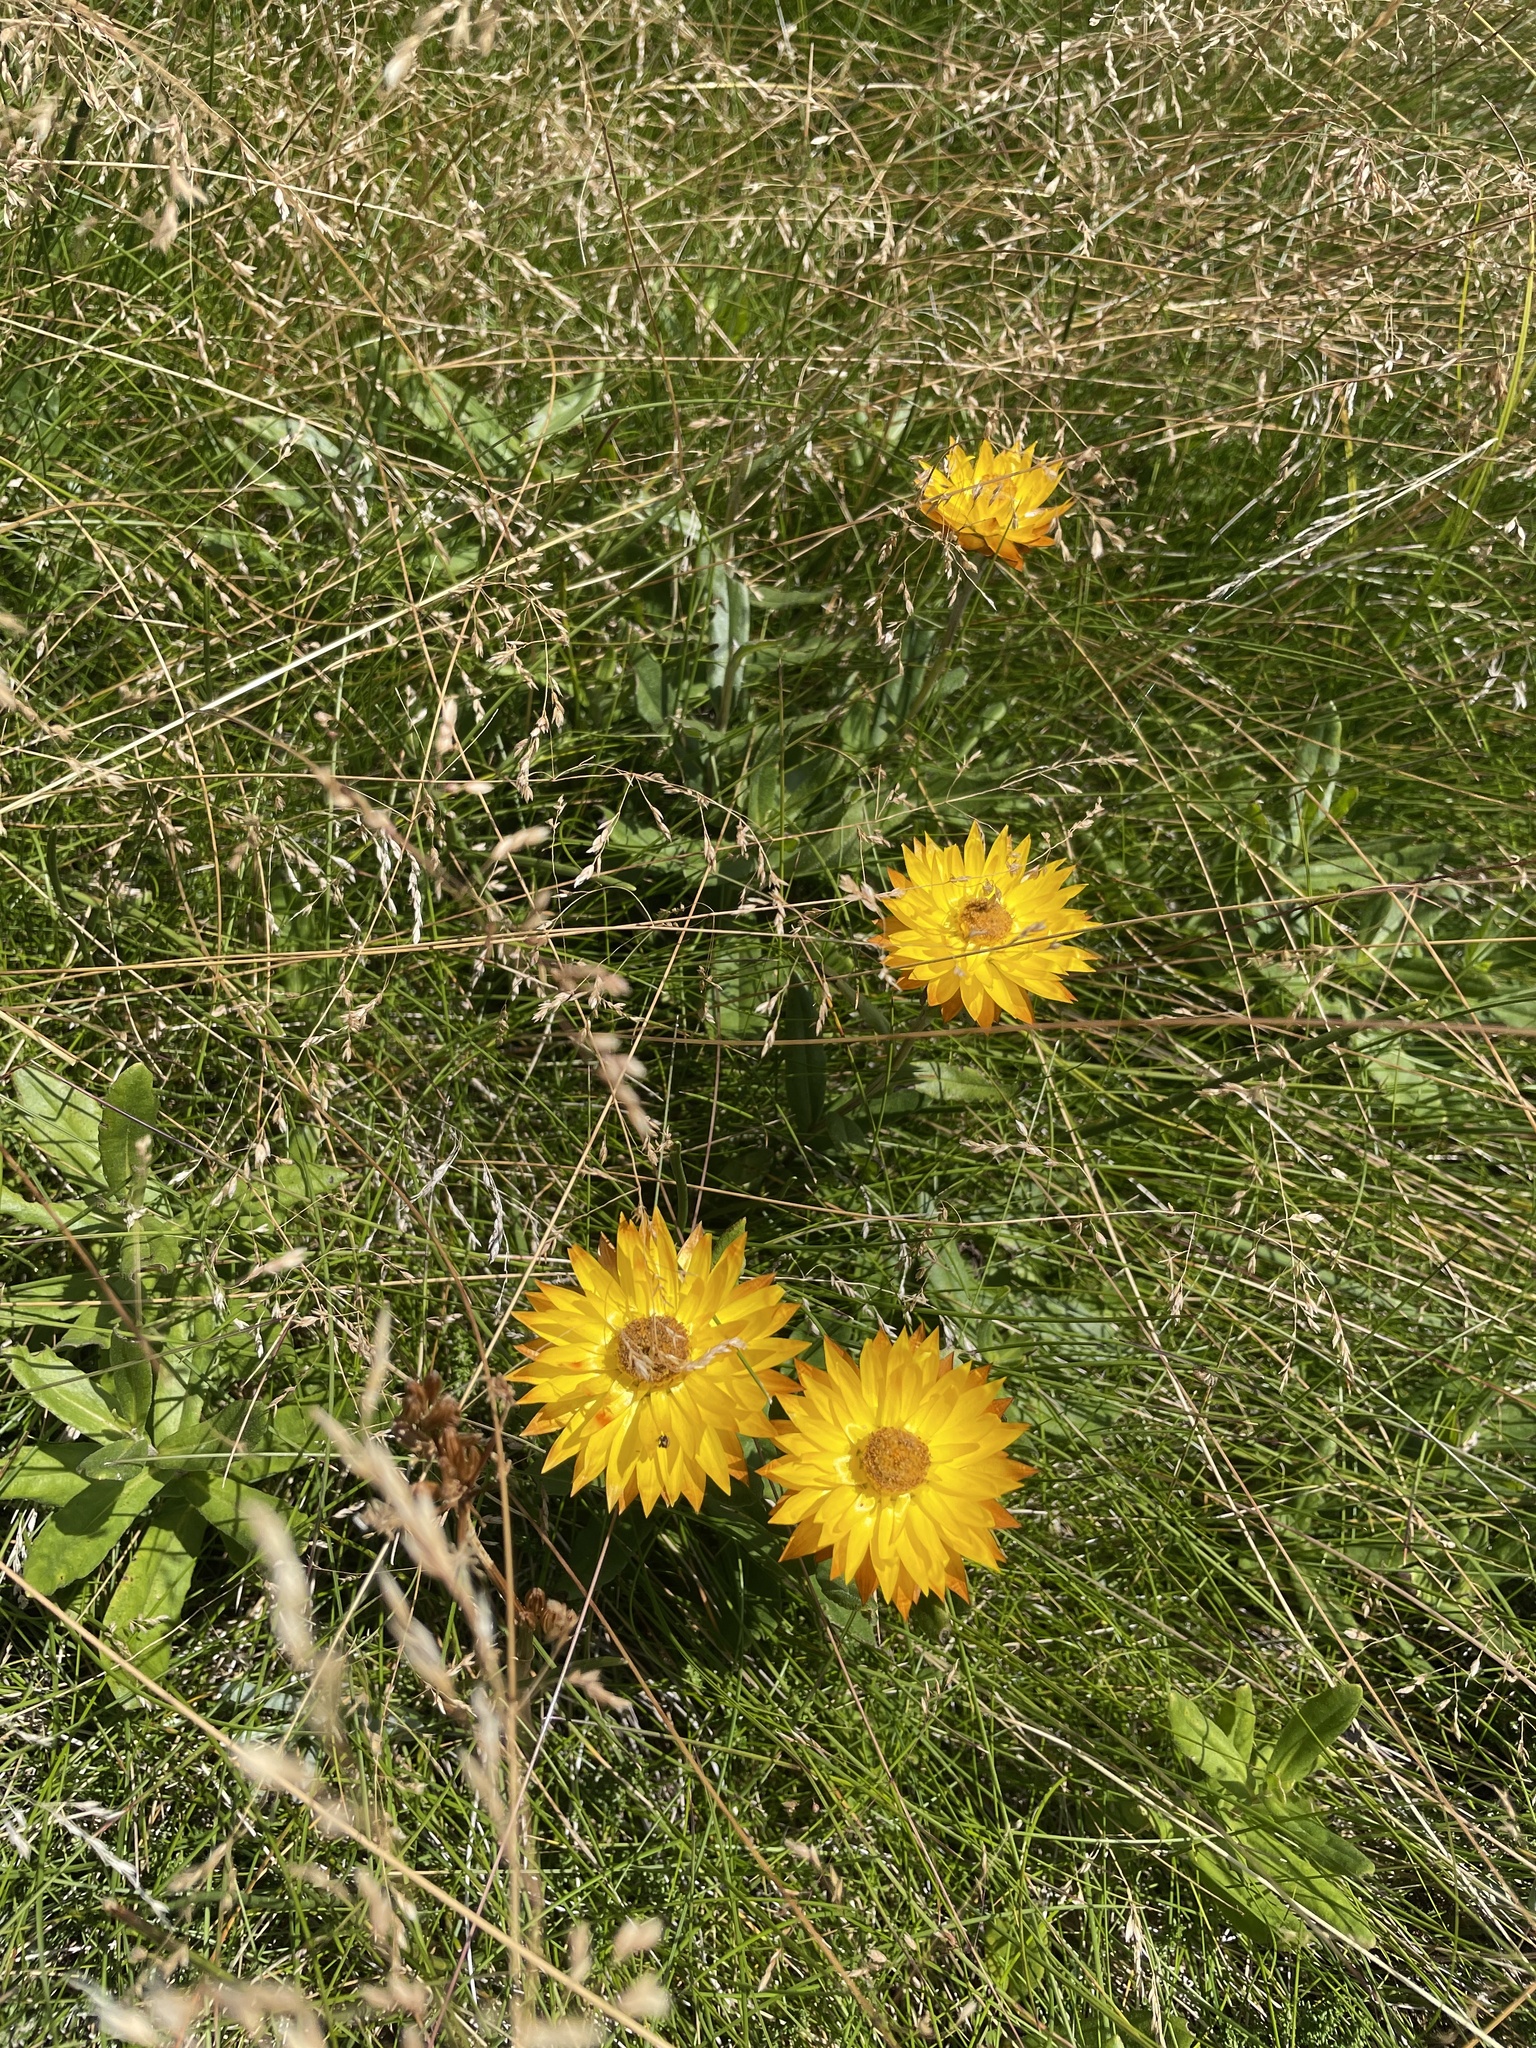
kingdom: Plantae
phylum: Tracheophyta
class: Magnoliopsida
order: Asterales
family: Asteraceae
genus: Xerochrysum
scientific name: Xerochrysum subundulatum
